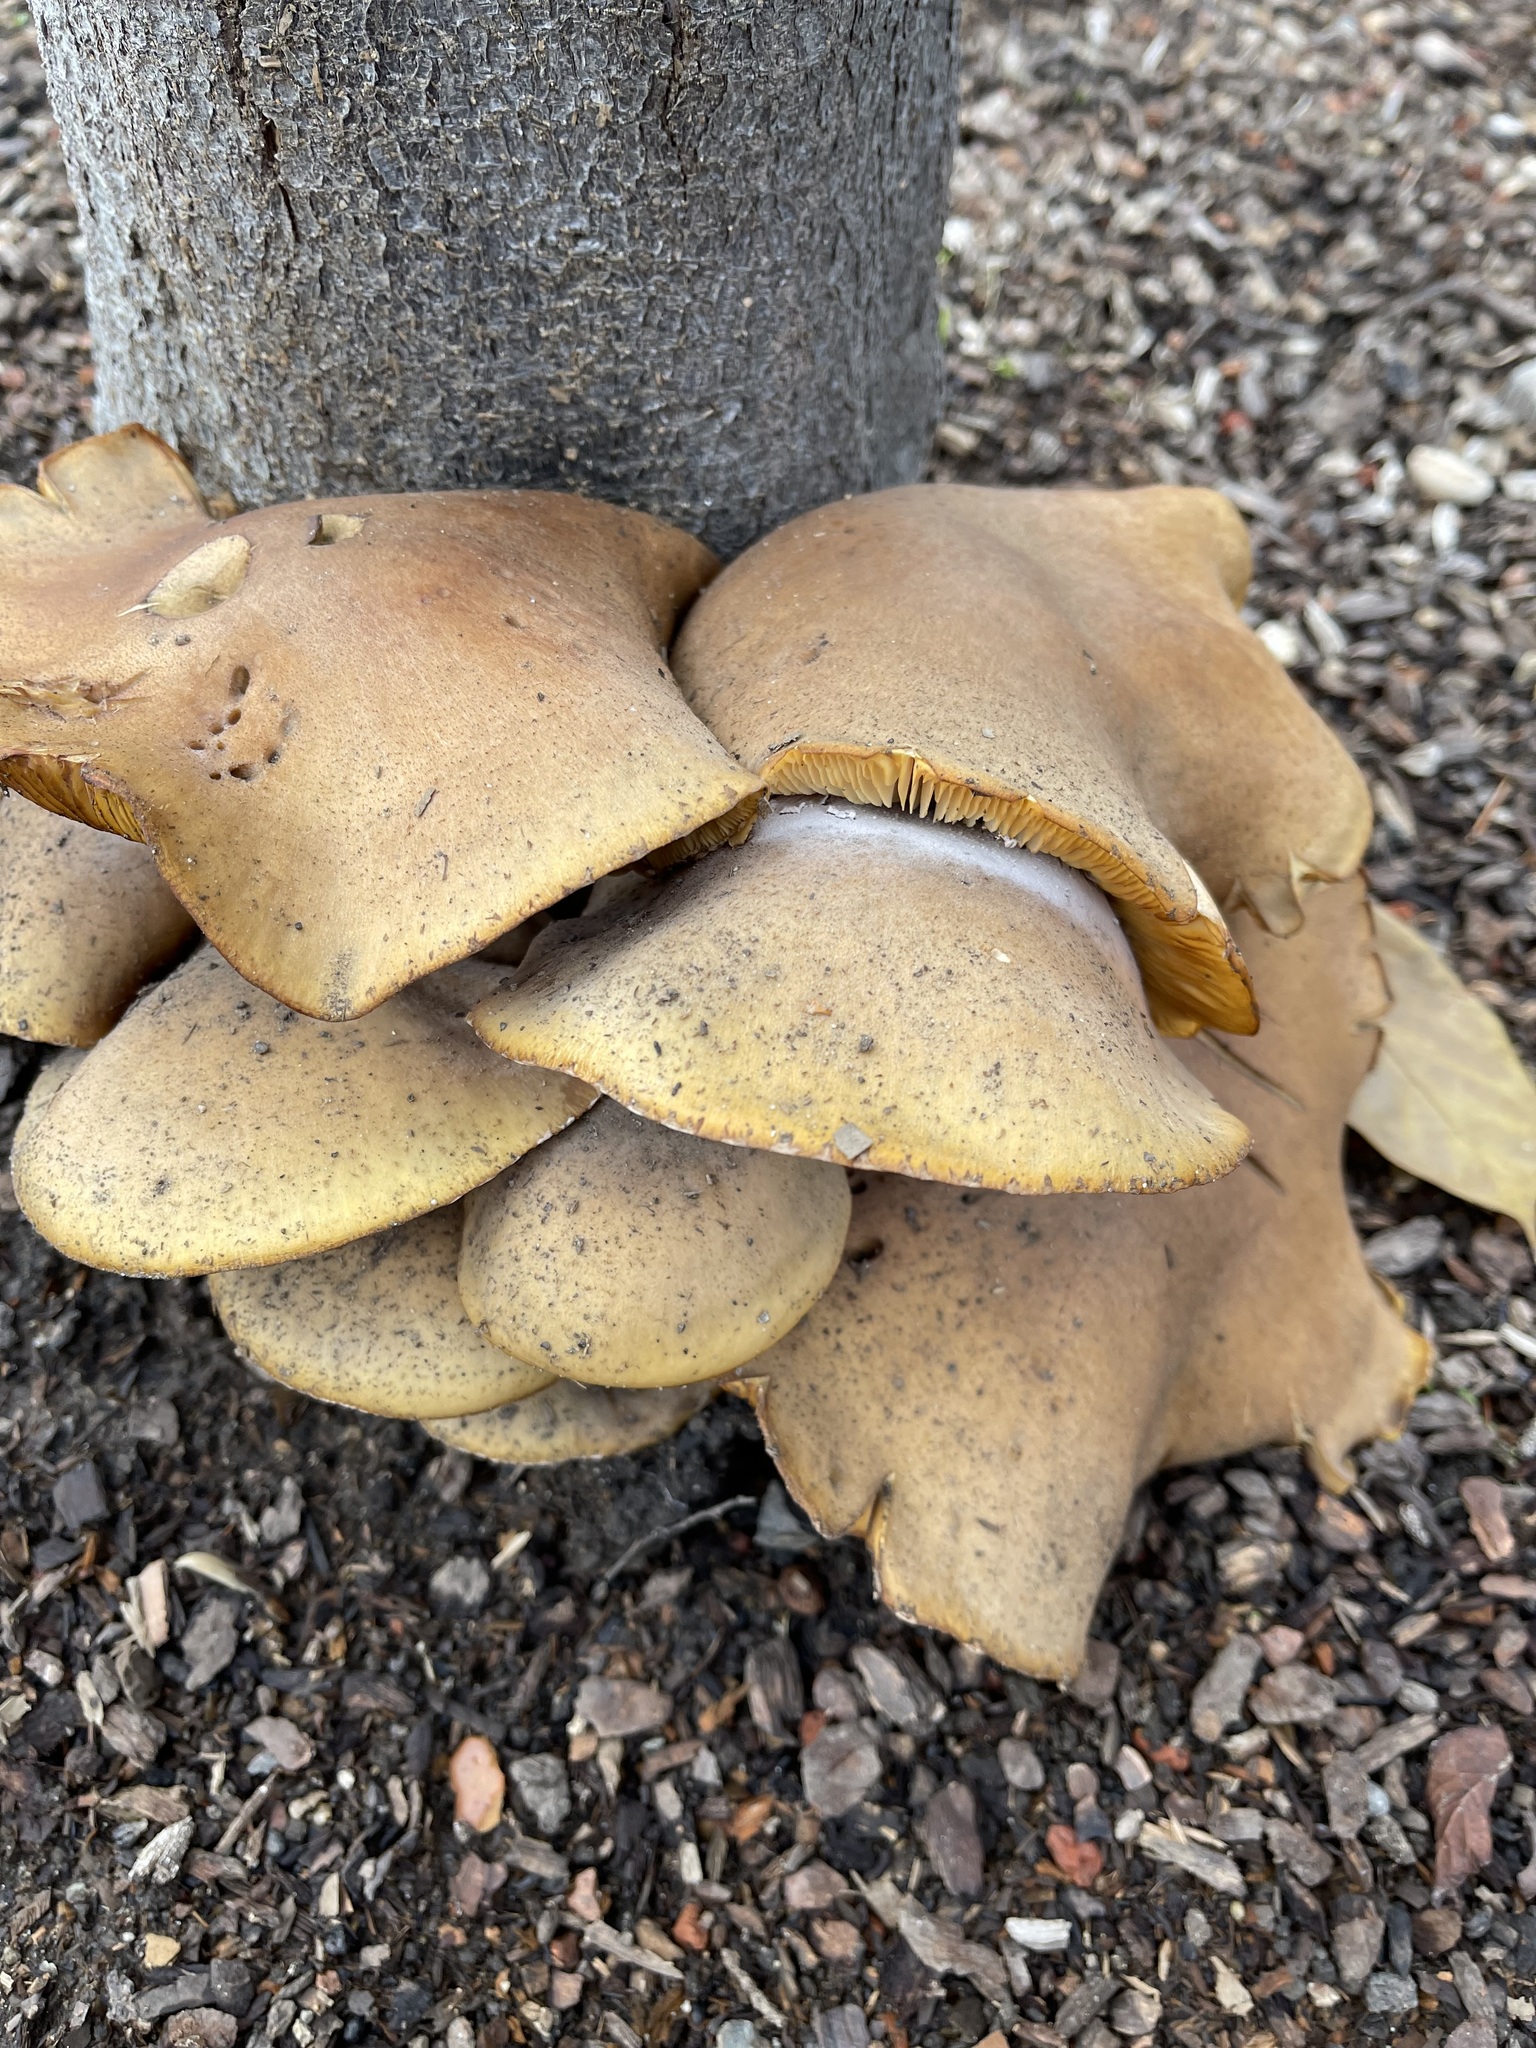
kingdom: Fungi
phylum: Basidiomycota
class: Agaricomycetes
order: Agaricales
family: Physalacriaceae
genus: Armillaria
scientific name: Armillaria mellea
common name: Honey fungus
